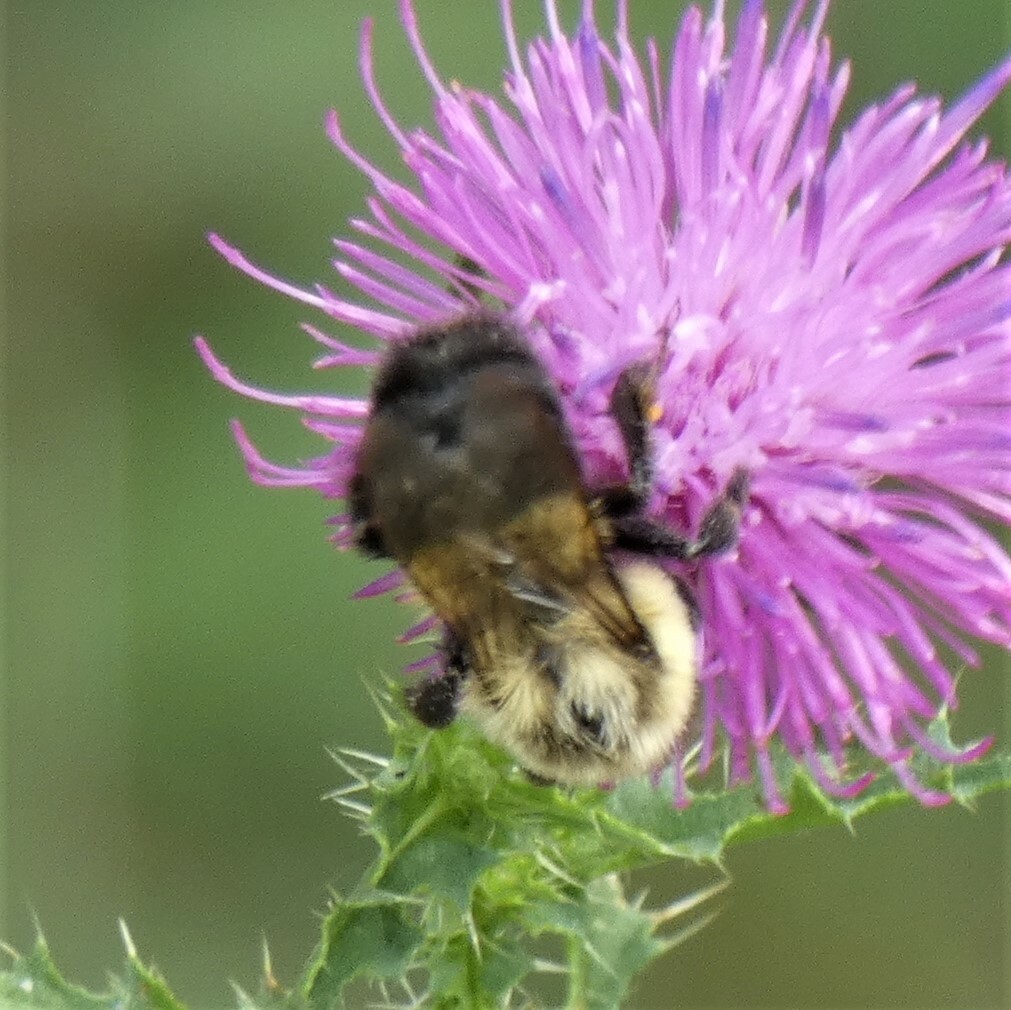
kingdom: Animalia
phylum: Arthropoda
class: Insecta
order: Hymenoptera
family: Apidae
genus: Bombus
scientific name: Bombus impatiens
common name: Common eastern bumble bee
